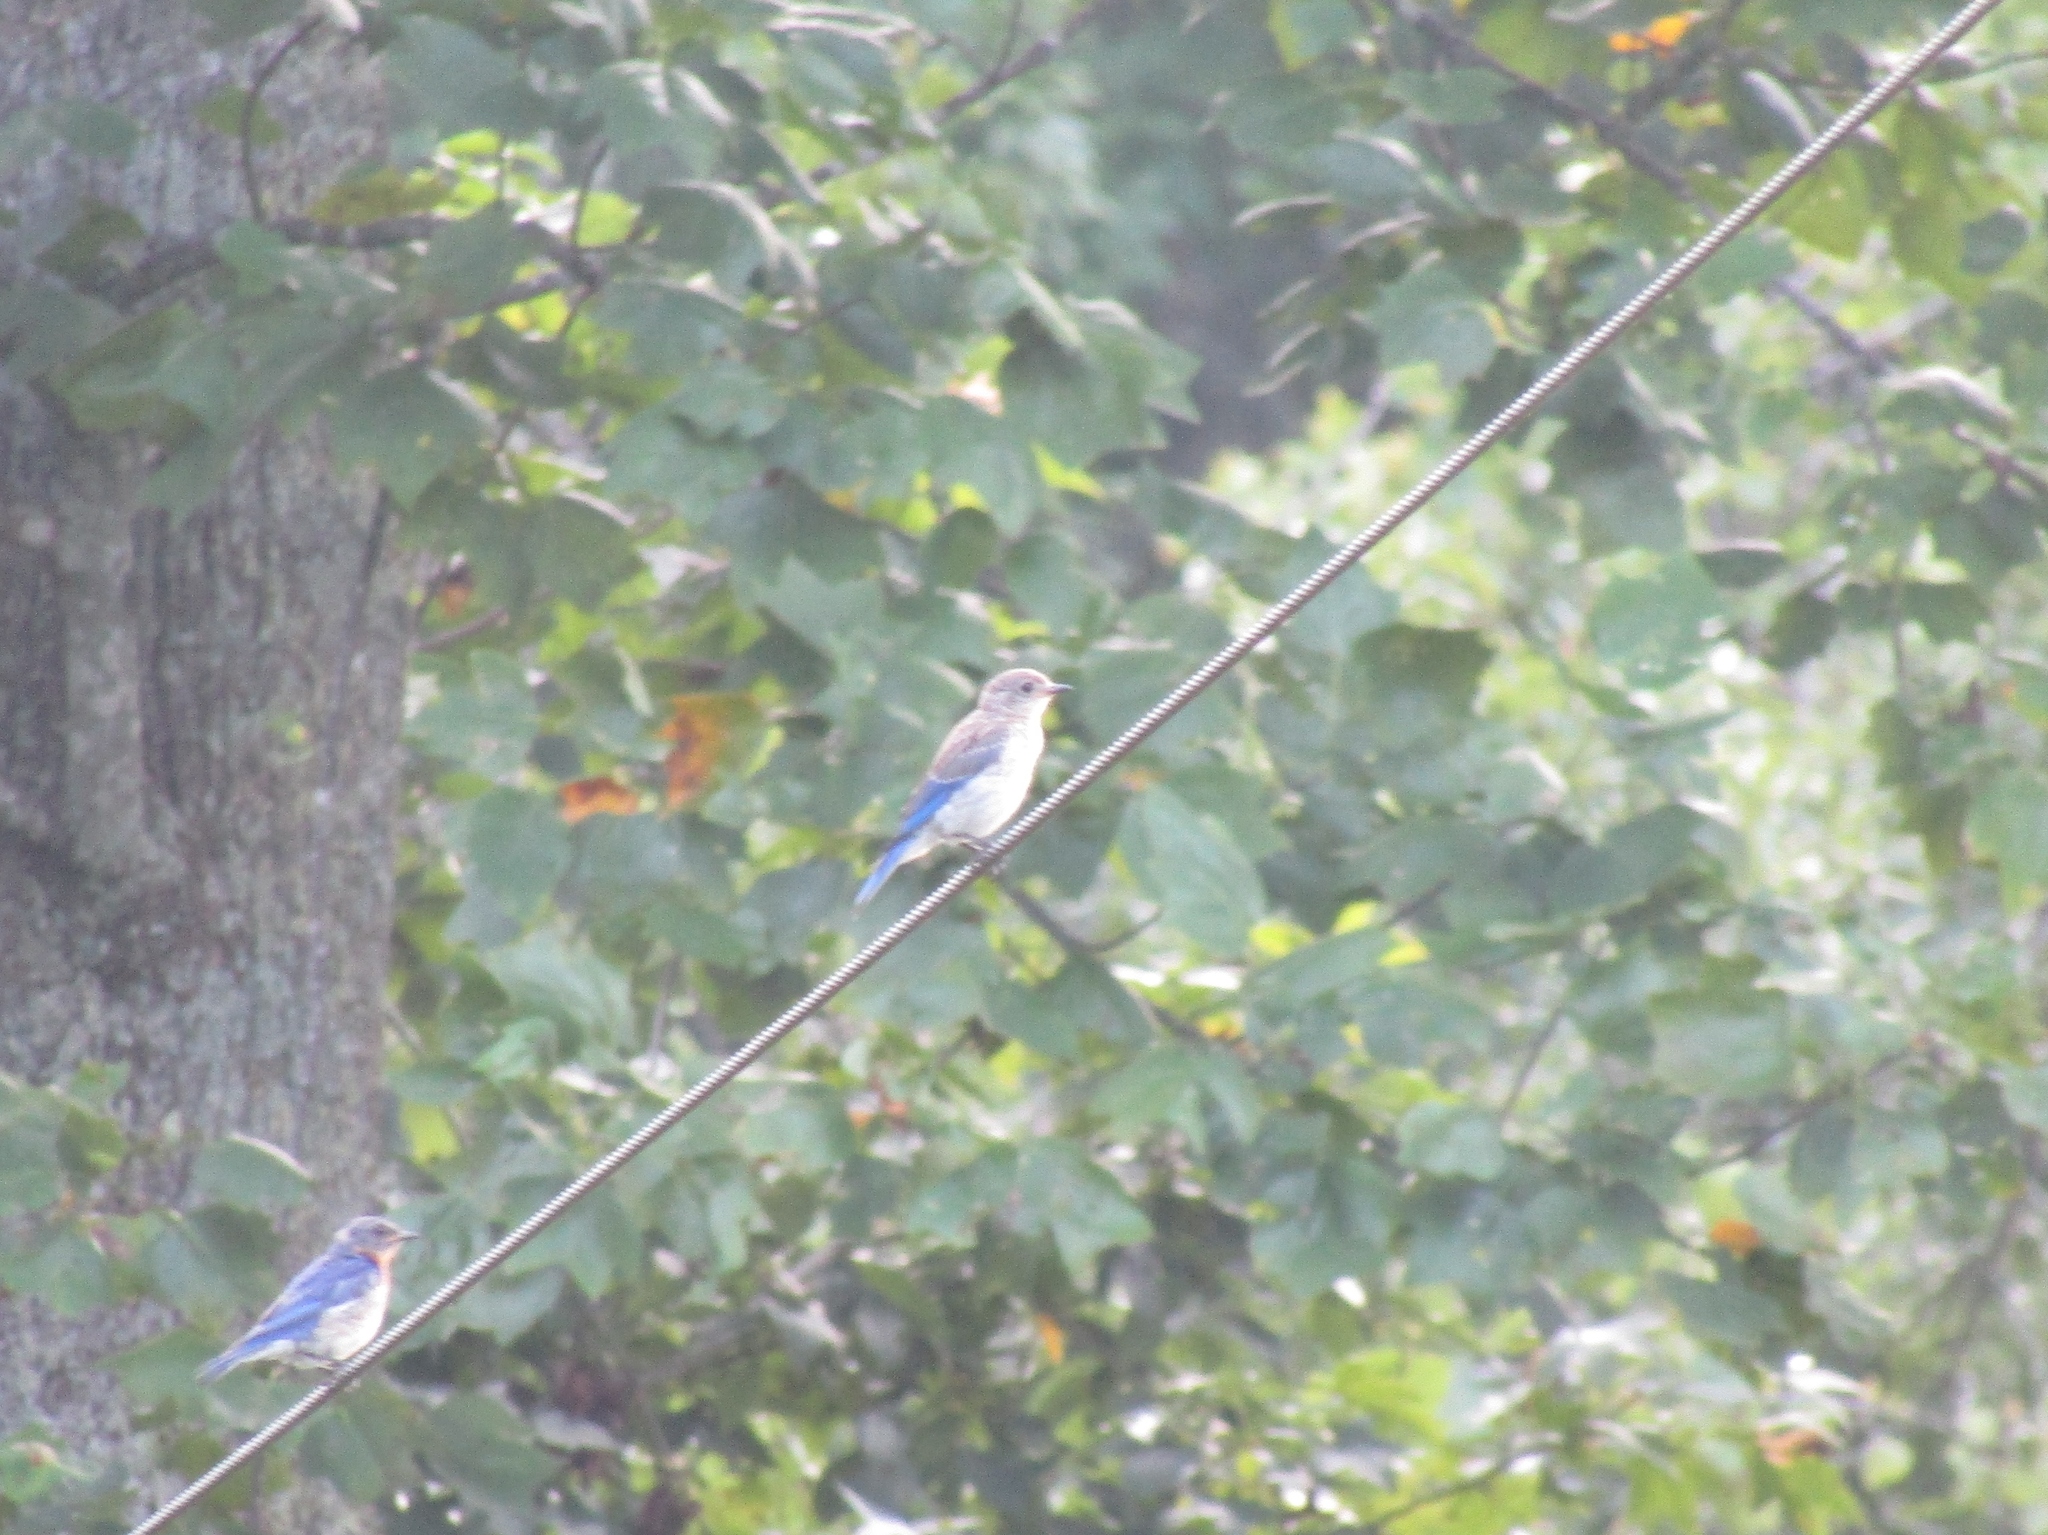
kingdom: Animalia
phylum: Chordata
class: Aves
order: Passeriformes
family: Turdidae
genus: Sialia
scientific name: Sialia sialis
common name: Eastern bluebird
